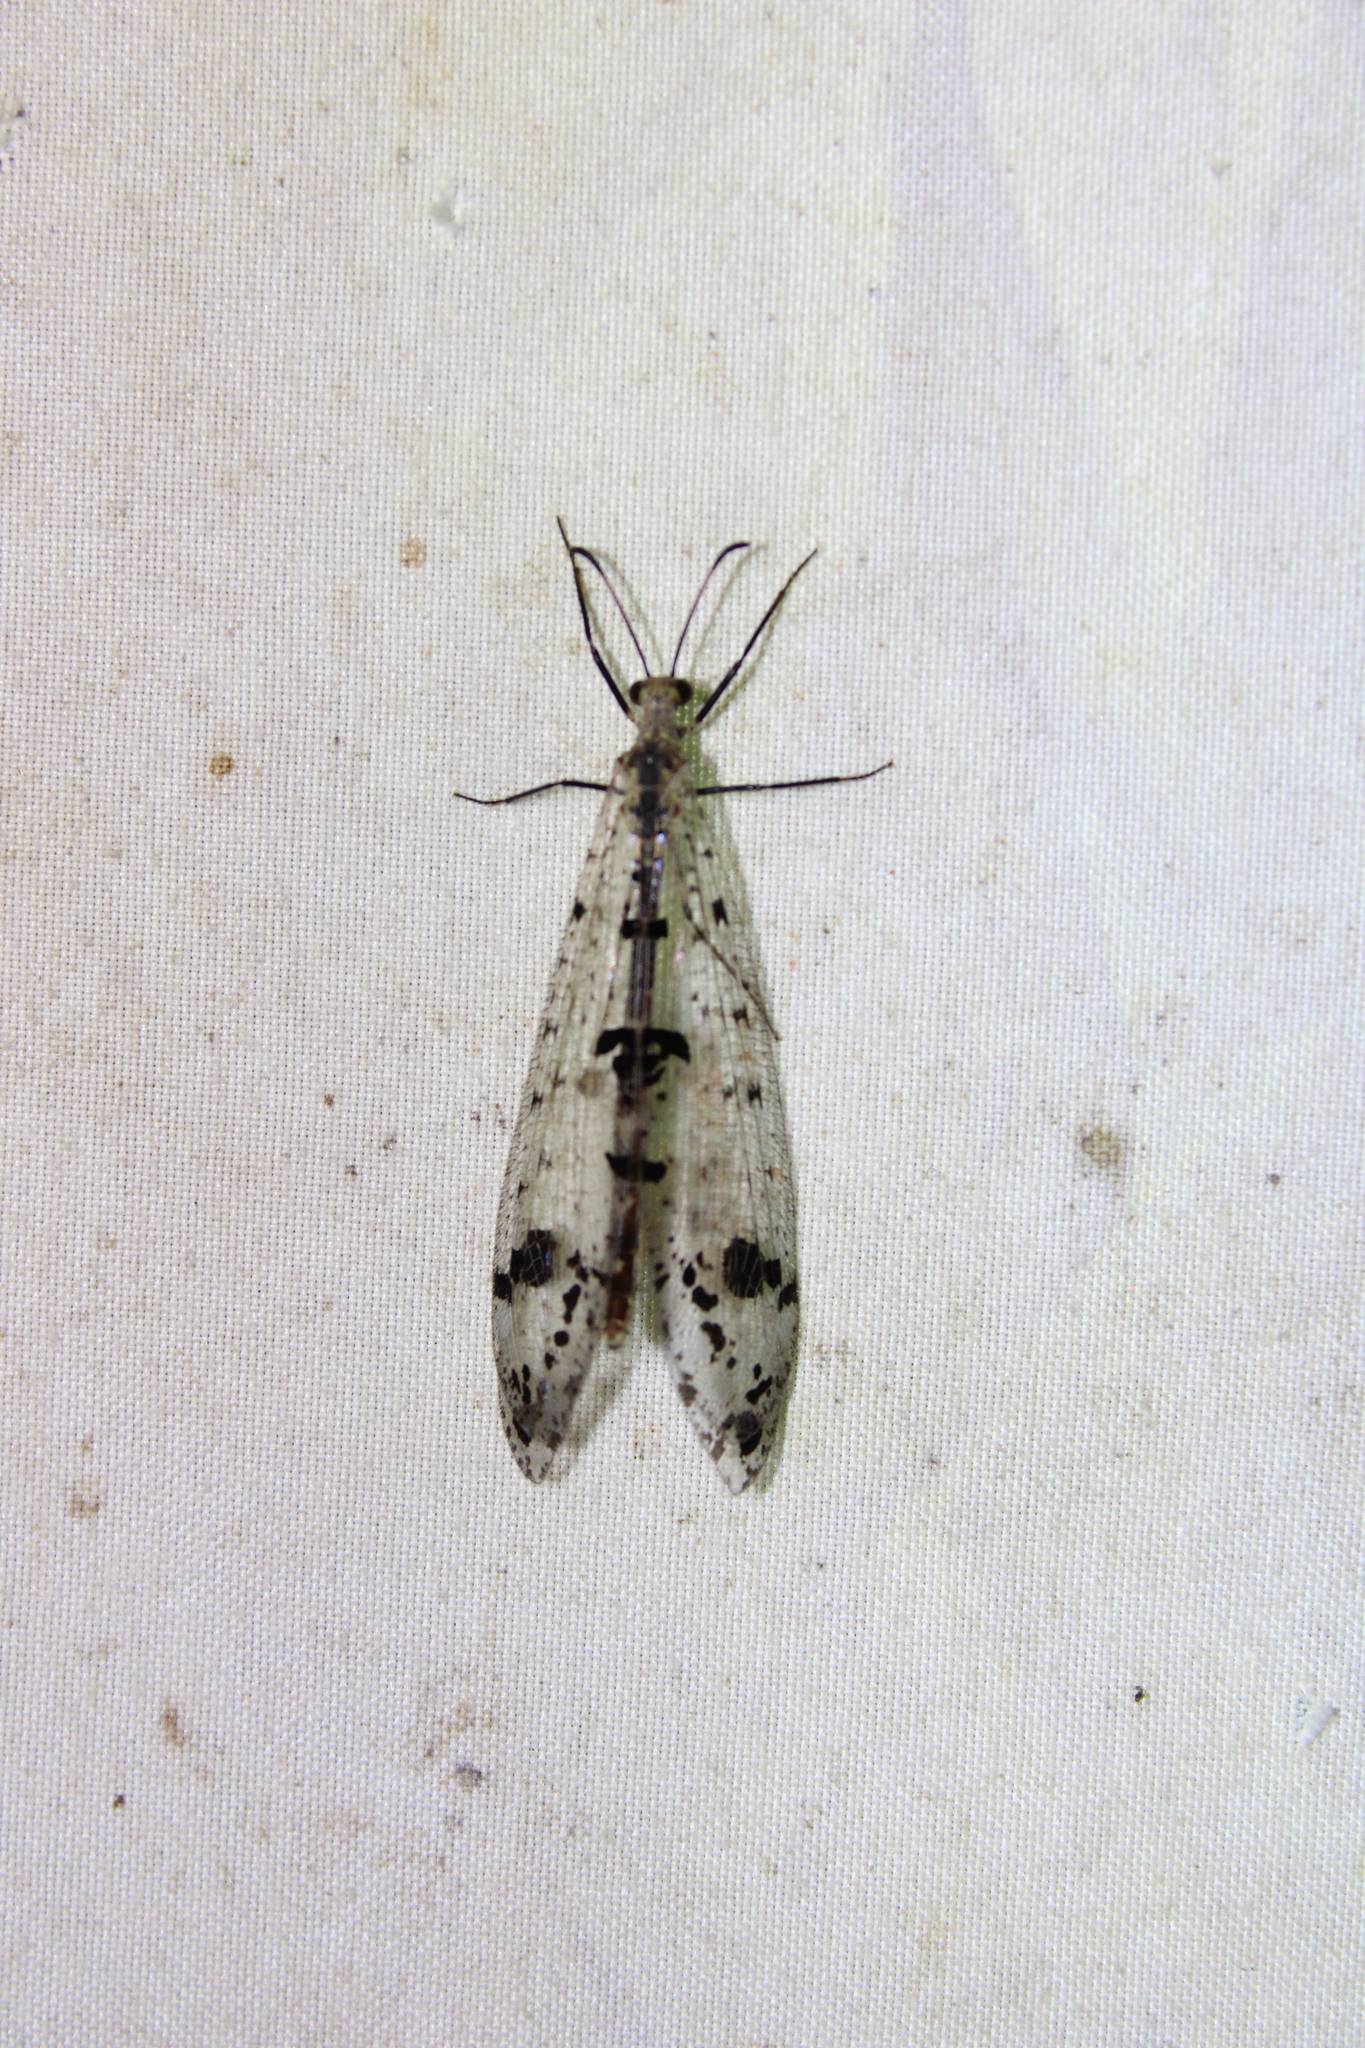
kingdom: Animalia
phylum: Arthropoda
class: Insecta
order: Neuroptera
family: Myrmeleontidae
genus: Dendroleon
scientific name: Dendroleon obsoletus
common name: Eastern spotted-winged antlion
